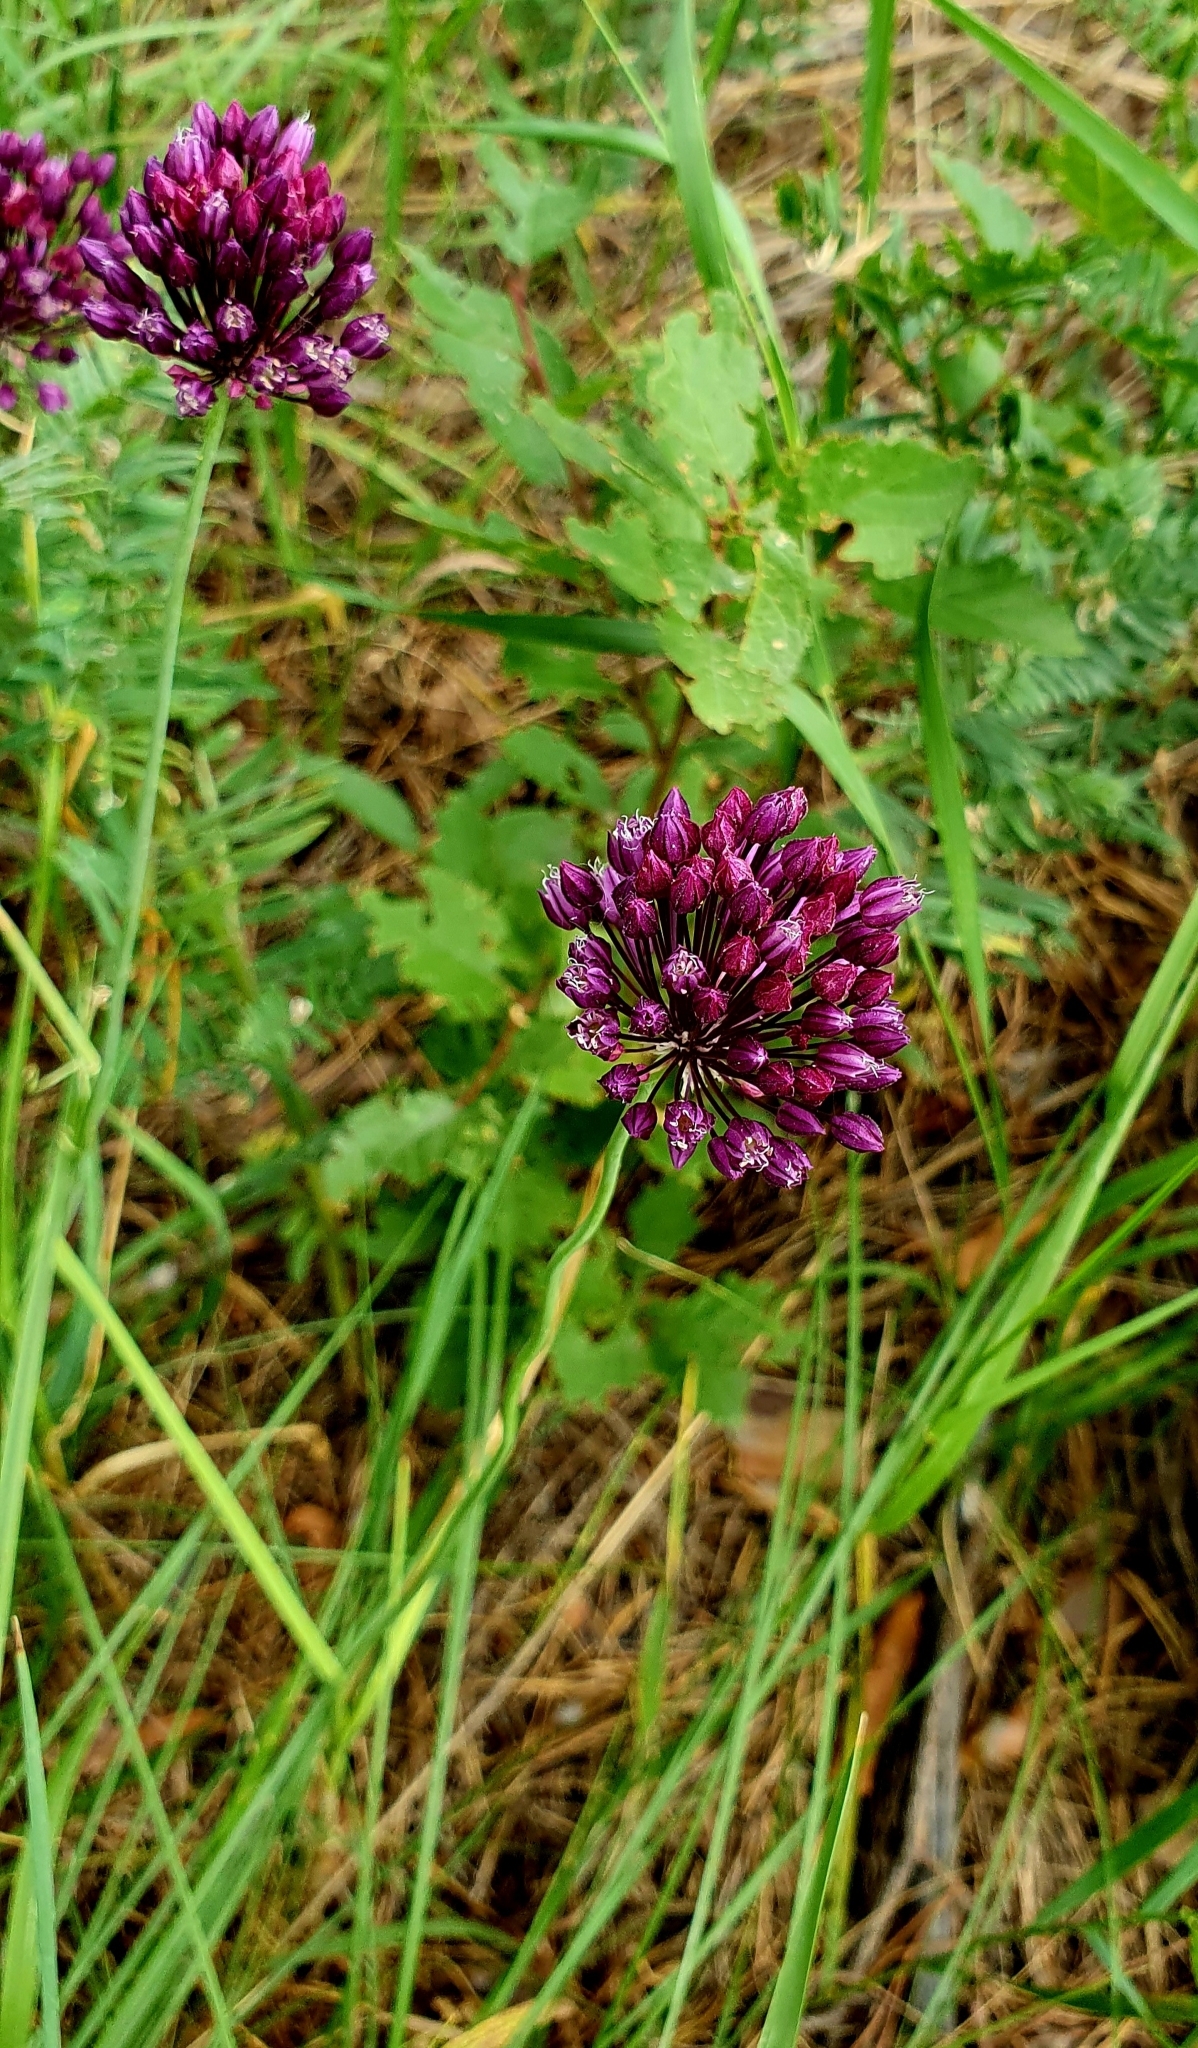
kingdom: Plantae
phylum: Tracheophyta
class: Liliopsida
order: Asparagales
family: Amaryllidaceae
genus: Allium
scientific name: Allium rotundum
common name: Sand leek
